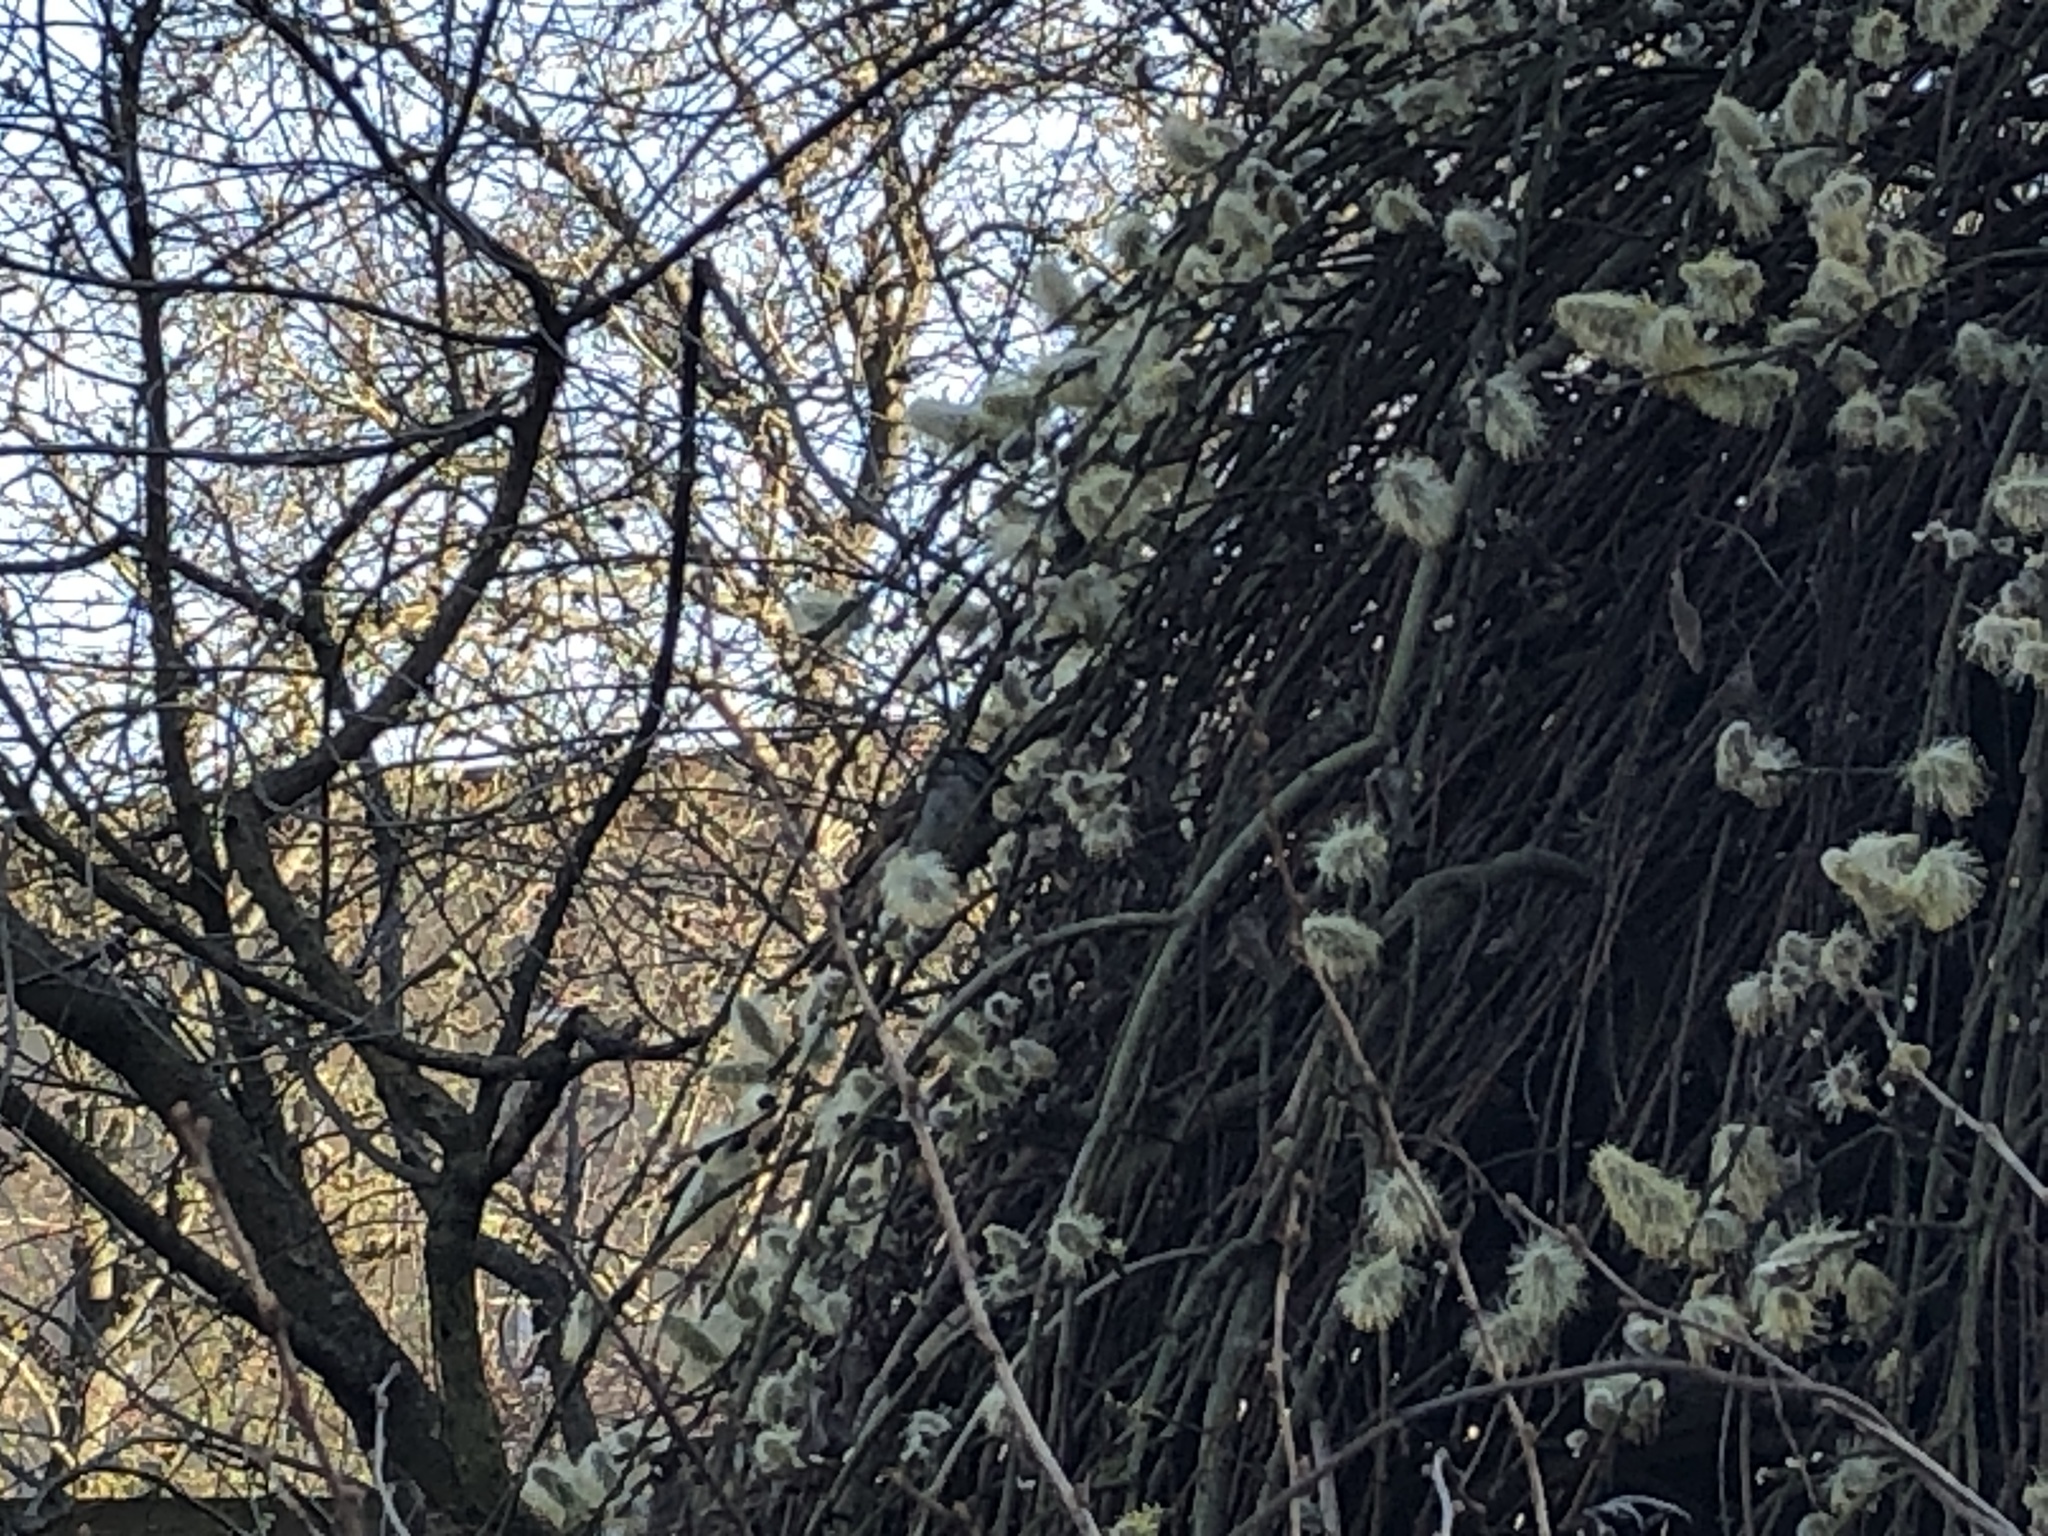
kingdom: Animalia
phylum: Chordata
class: Aves
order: Passeriformes
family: Passeridae
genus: Passer
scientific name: Passer domesticus
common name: House sparrow
